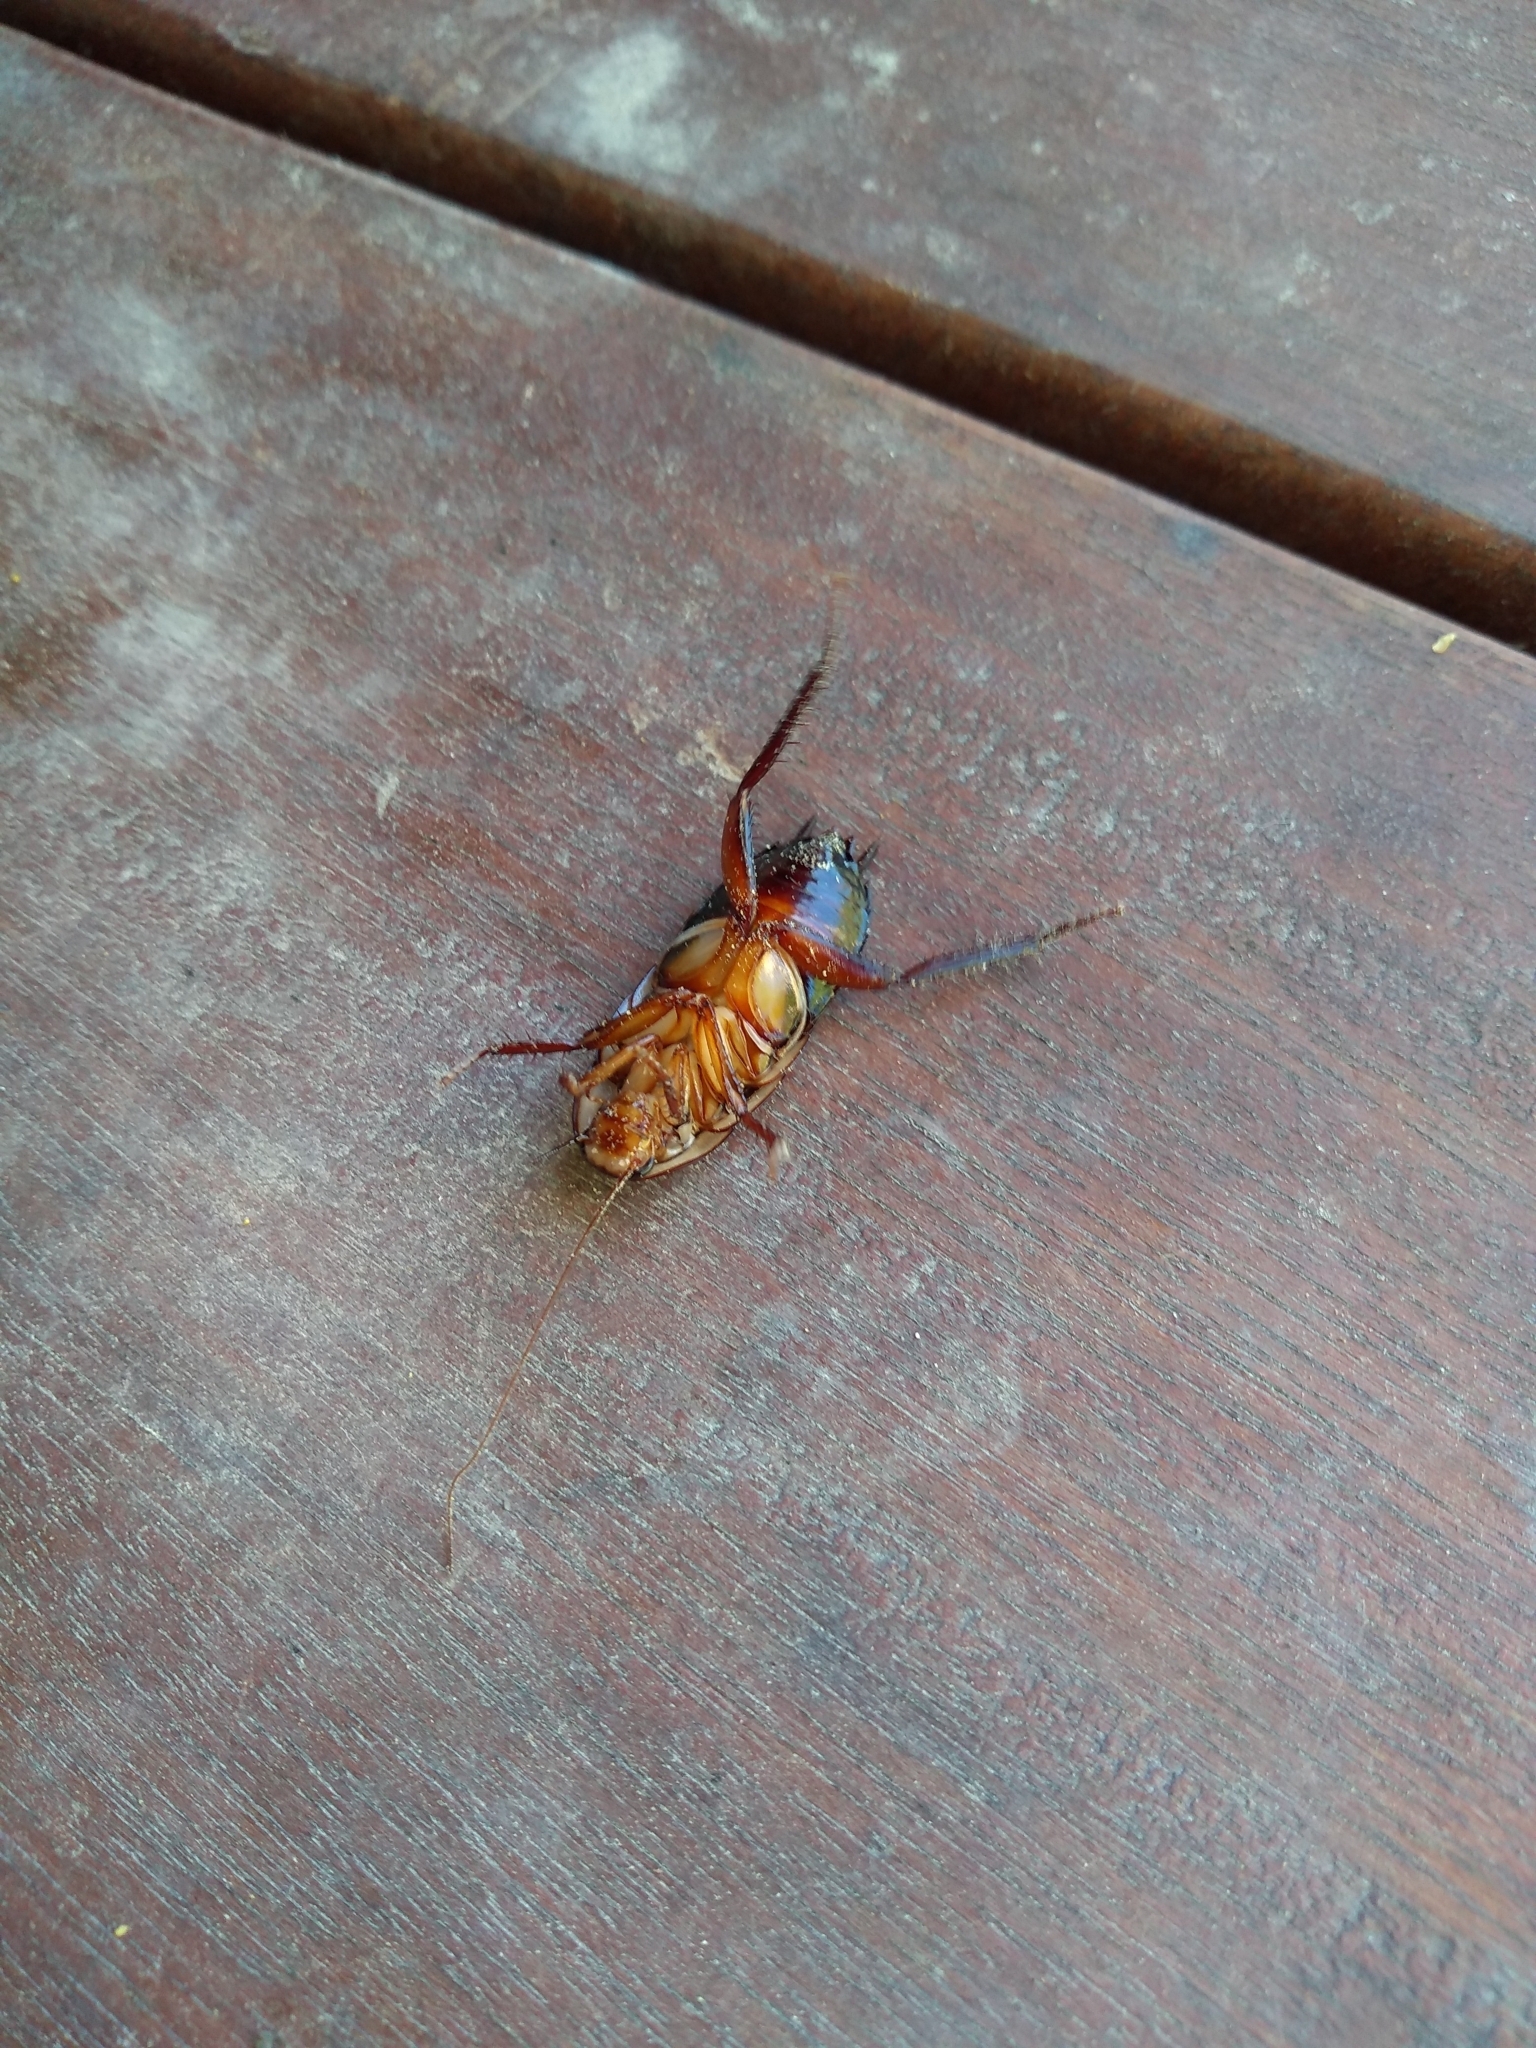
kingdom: Animalia
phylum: Arthropoda
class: Insecta
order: Blattodea
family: Blattidae
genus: Drymaplaneta
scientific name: Drymaplaneta semivitta
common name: Gisborne cockroach
